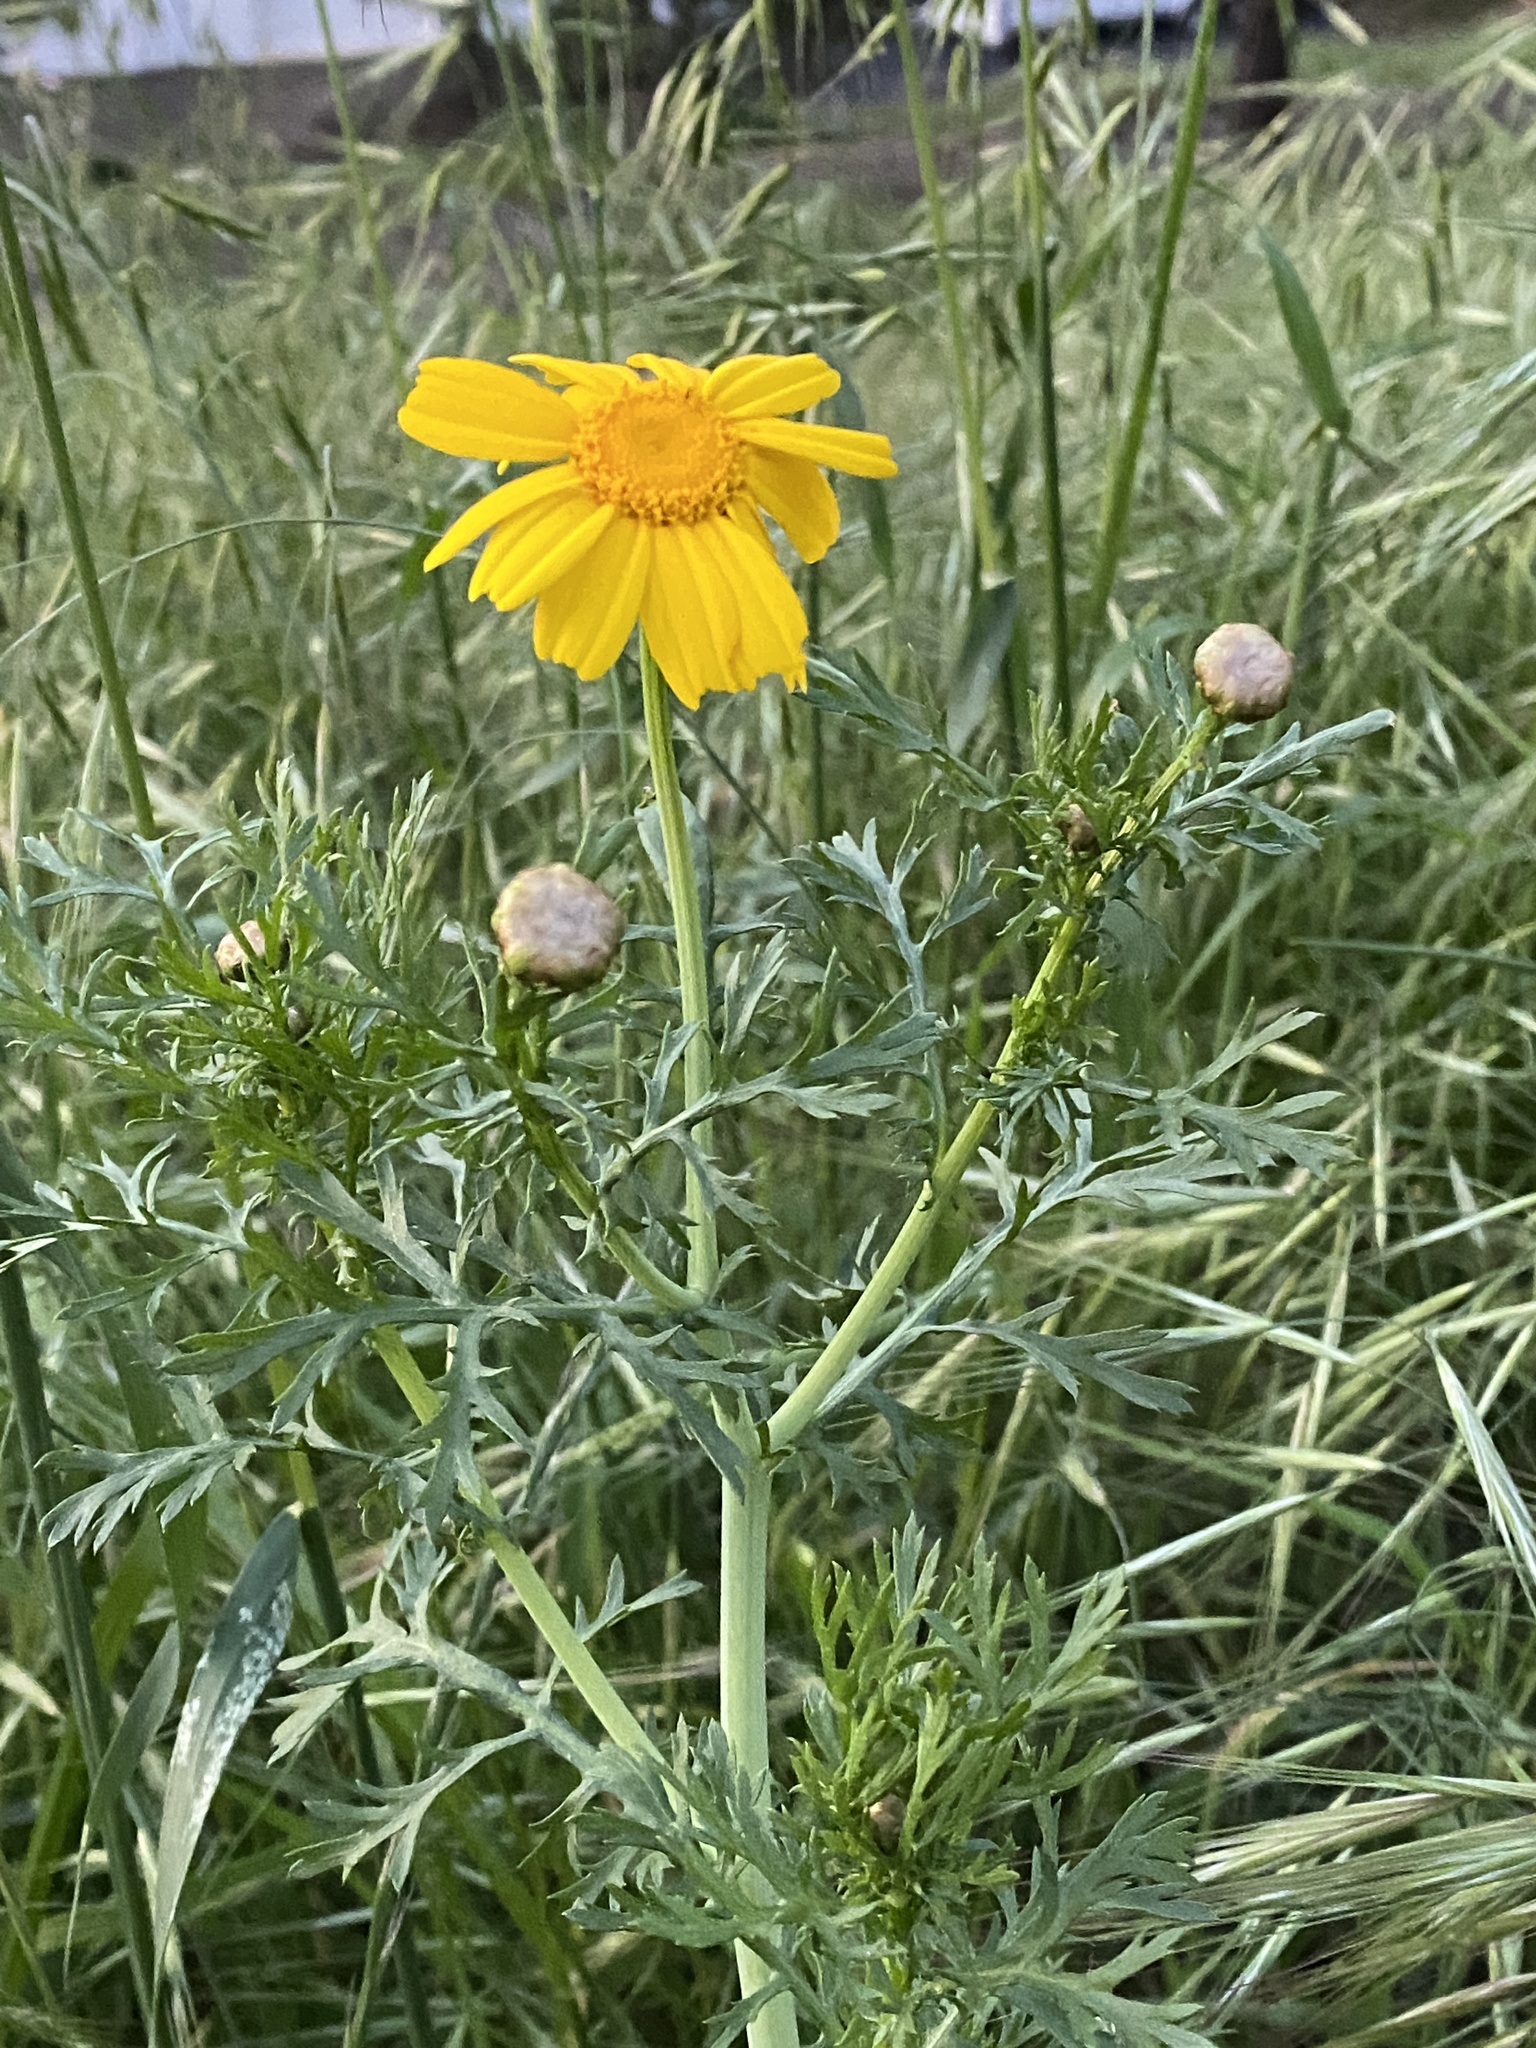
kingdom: Plantae
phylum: Tracheophyta
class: Magnoliopsida
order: Asterales
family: Asteraceae
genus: Glebionis
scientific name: Glebionis coronaria
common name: Crowndaisy
